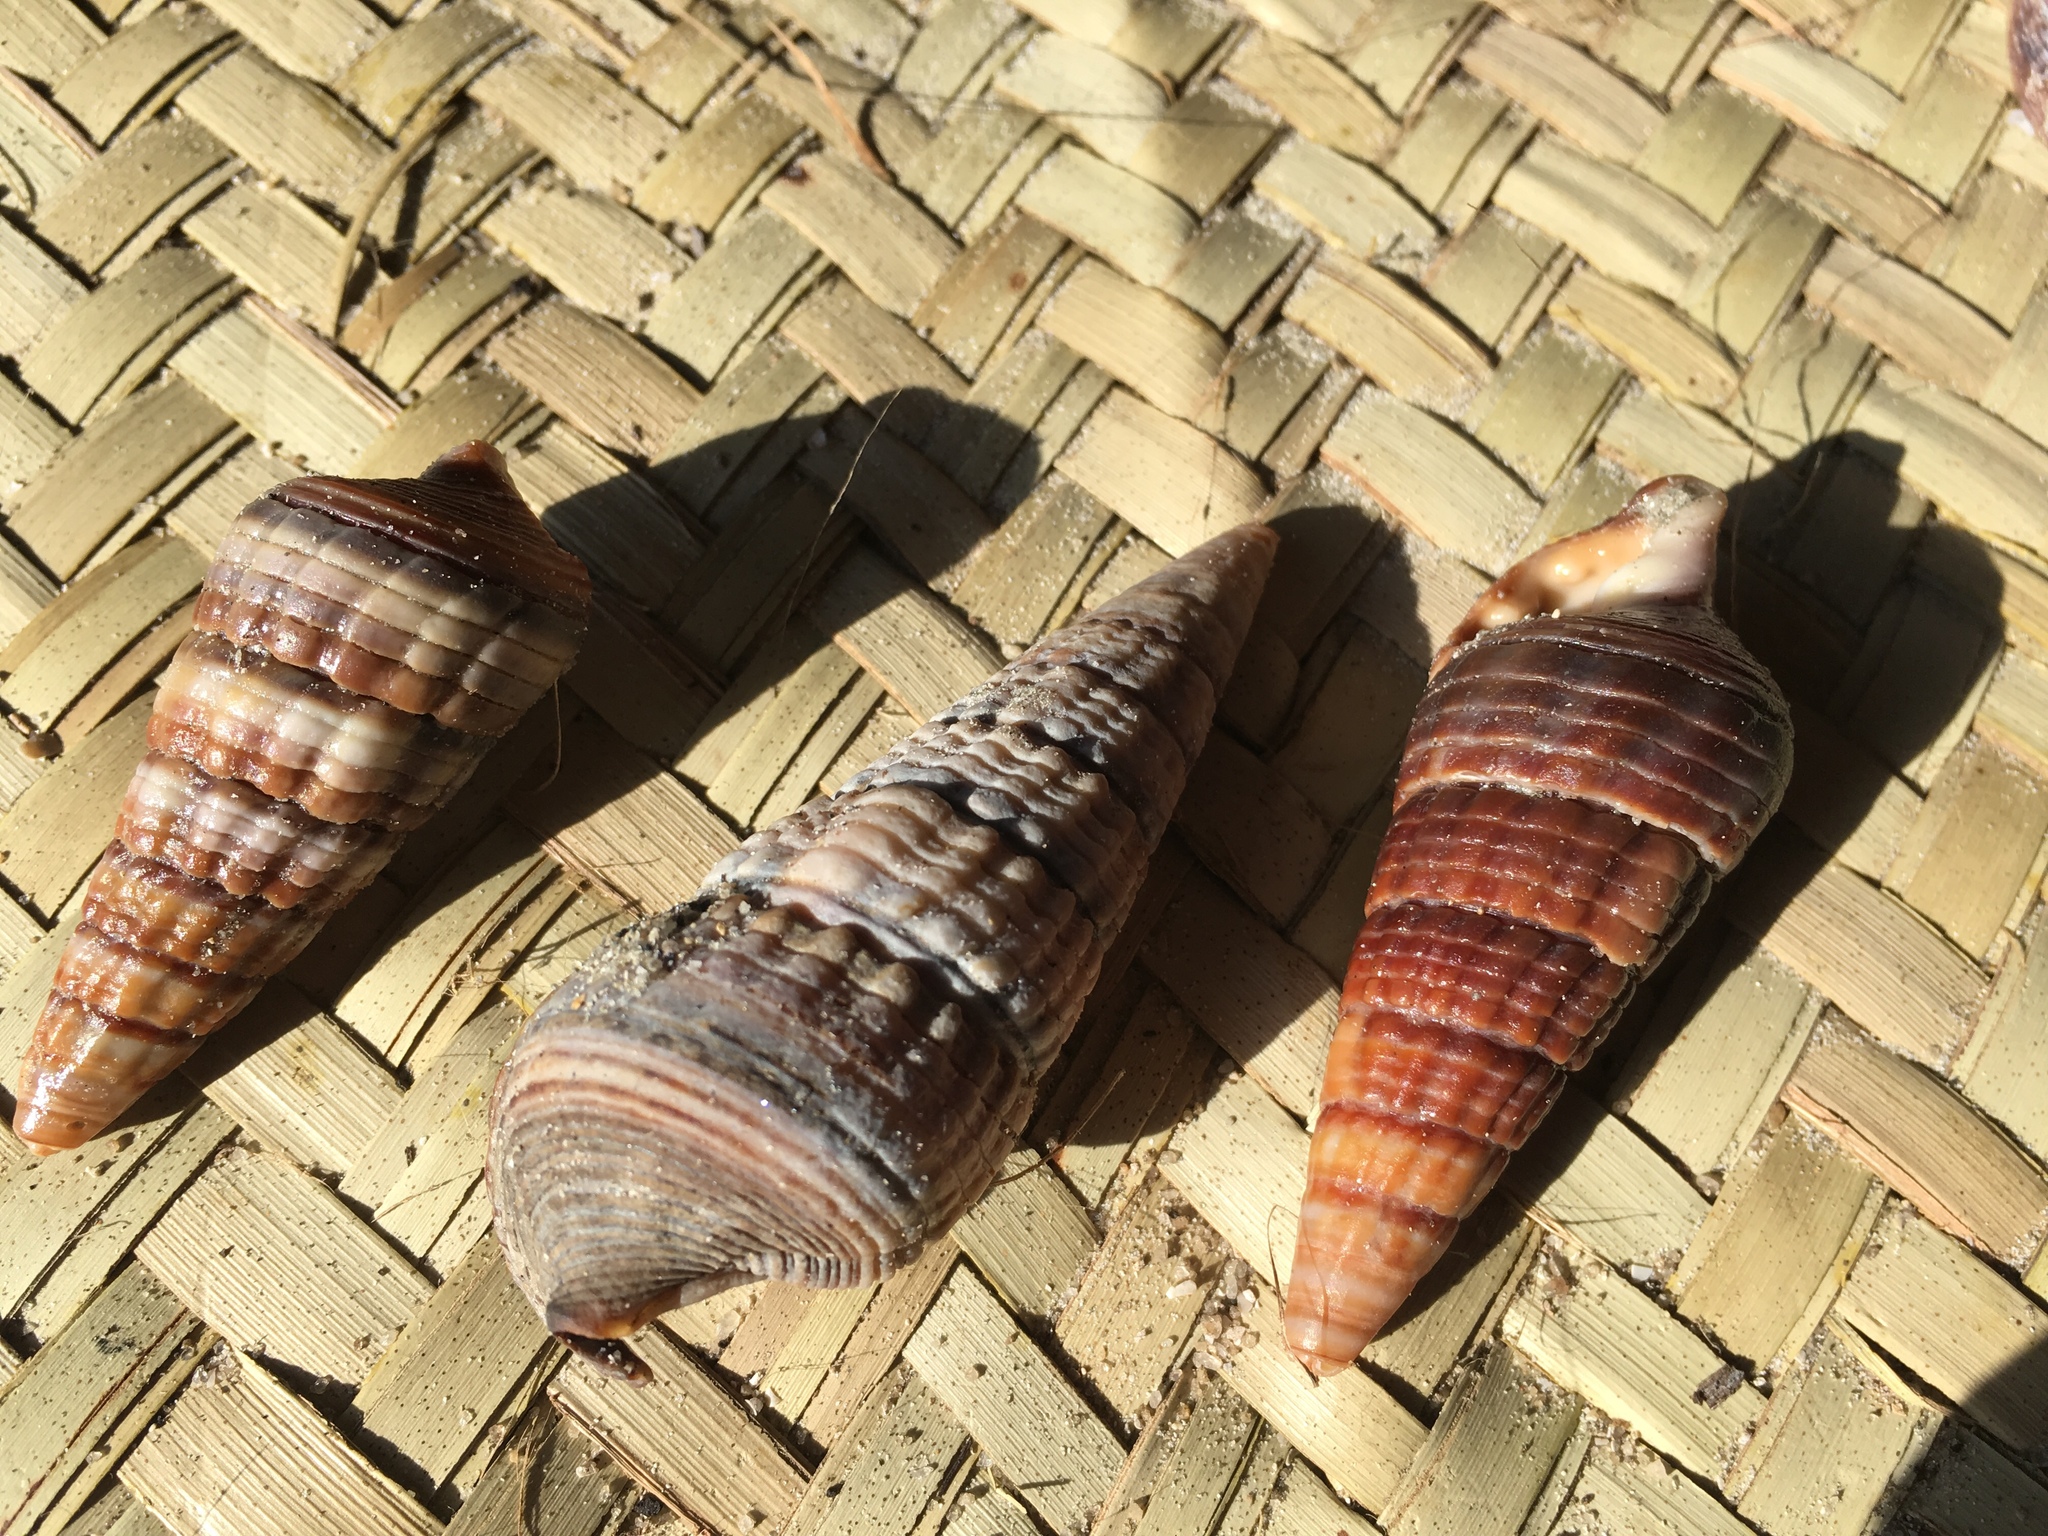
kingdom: Animalia
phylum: Mollusca
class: Gastropoda
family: Potamididae
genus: Terebralia
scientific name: Terebralia palustris
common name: Mangrove whelk
